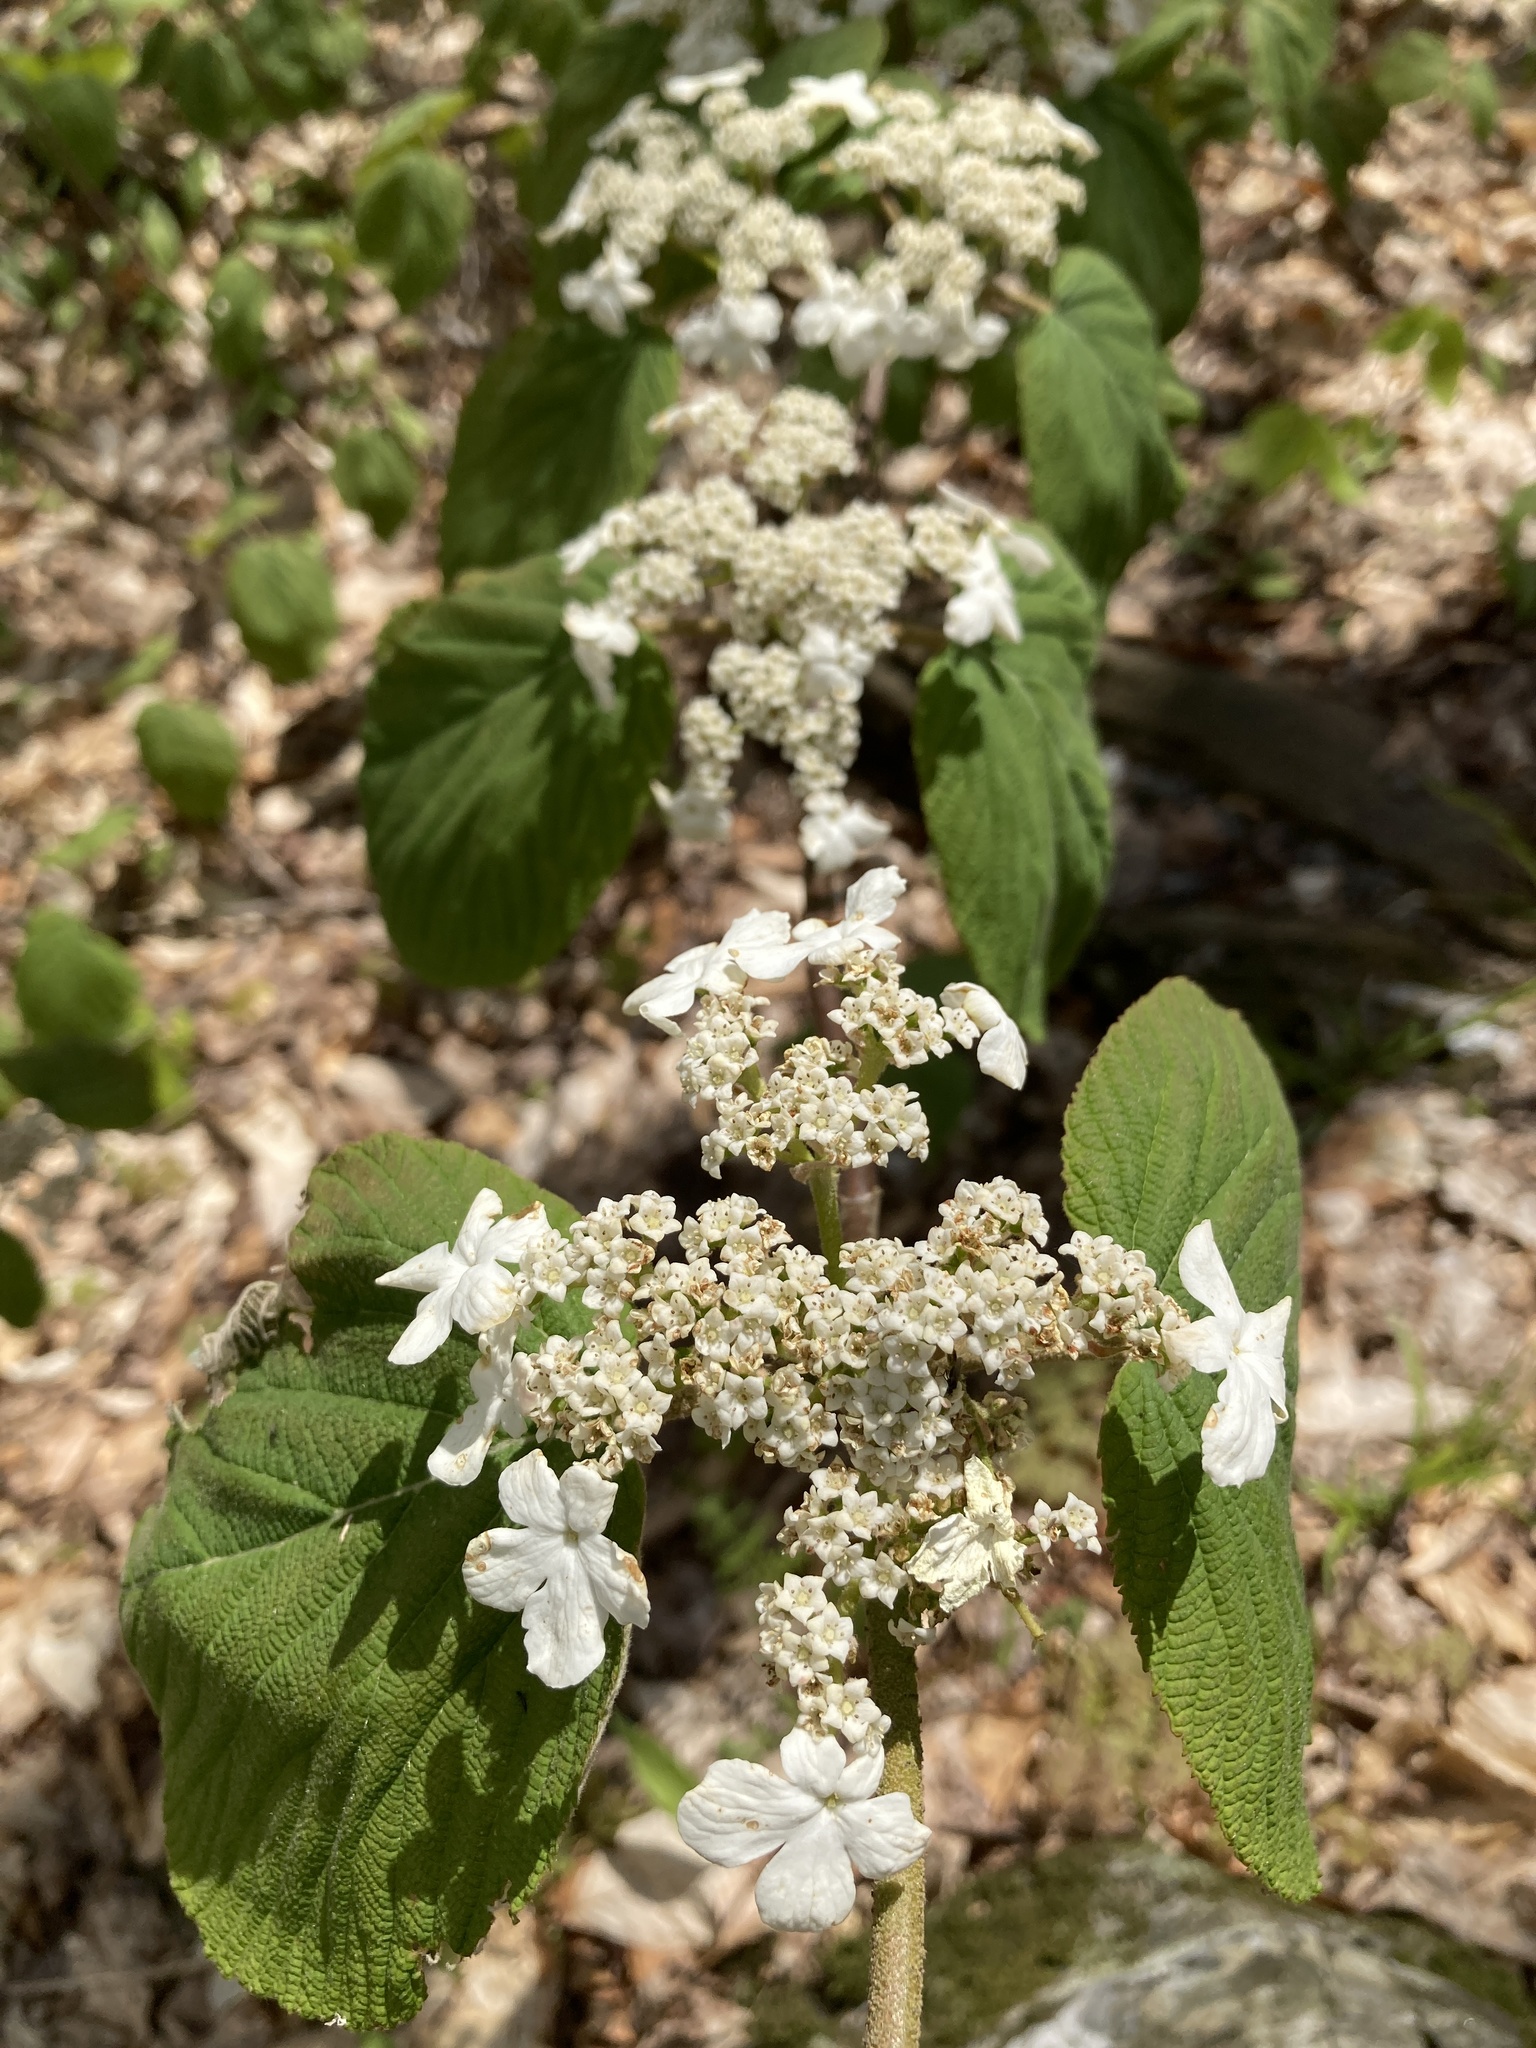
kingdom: Plantae
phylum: Tracheophyta
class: Magnoliopsida
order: Dipsacales
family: Viburnaceae
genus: Viburnum
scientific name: Viburnum lantanoides
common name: Hobblebush
